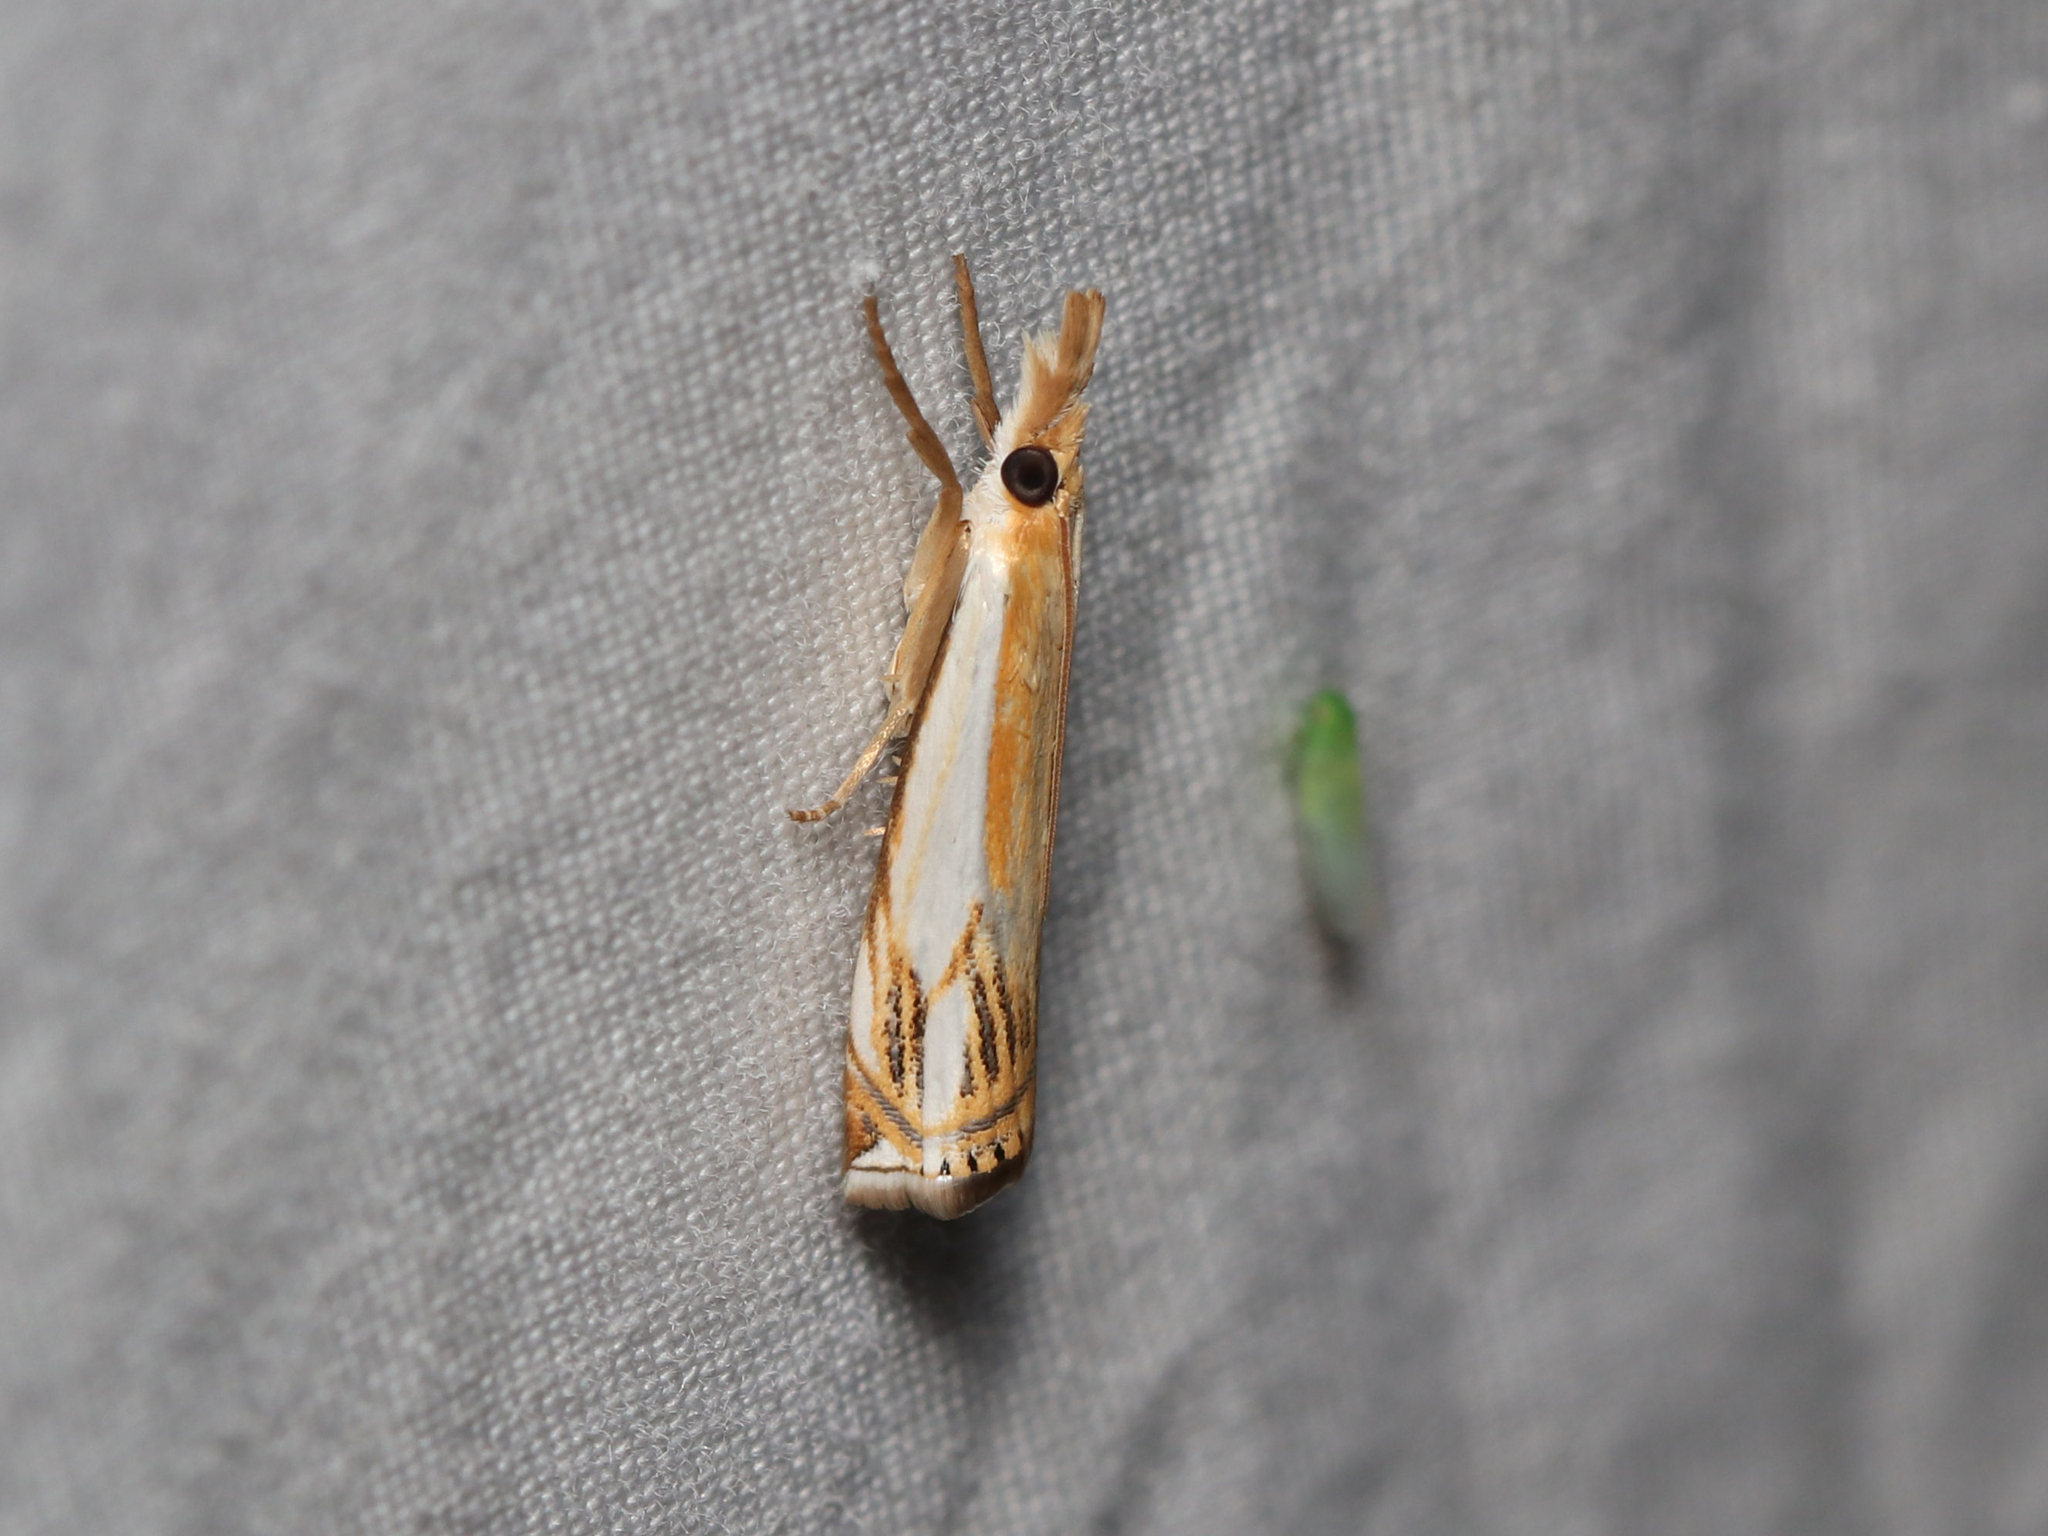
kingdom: Animalia
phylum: Arthropoda
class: Insecta
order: Lepidoptera
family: Crambidae
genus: Crambus
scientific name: Crambus agitatellus
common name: Double-banded grass-veneer
